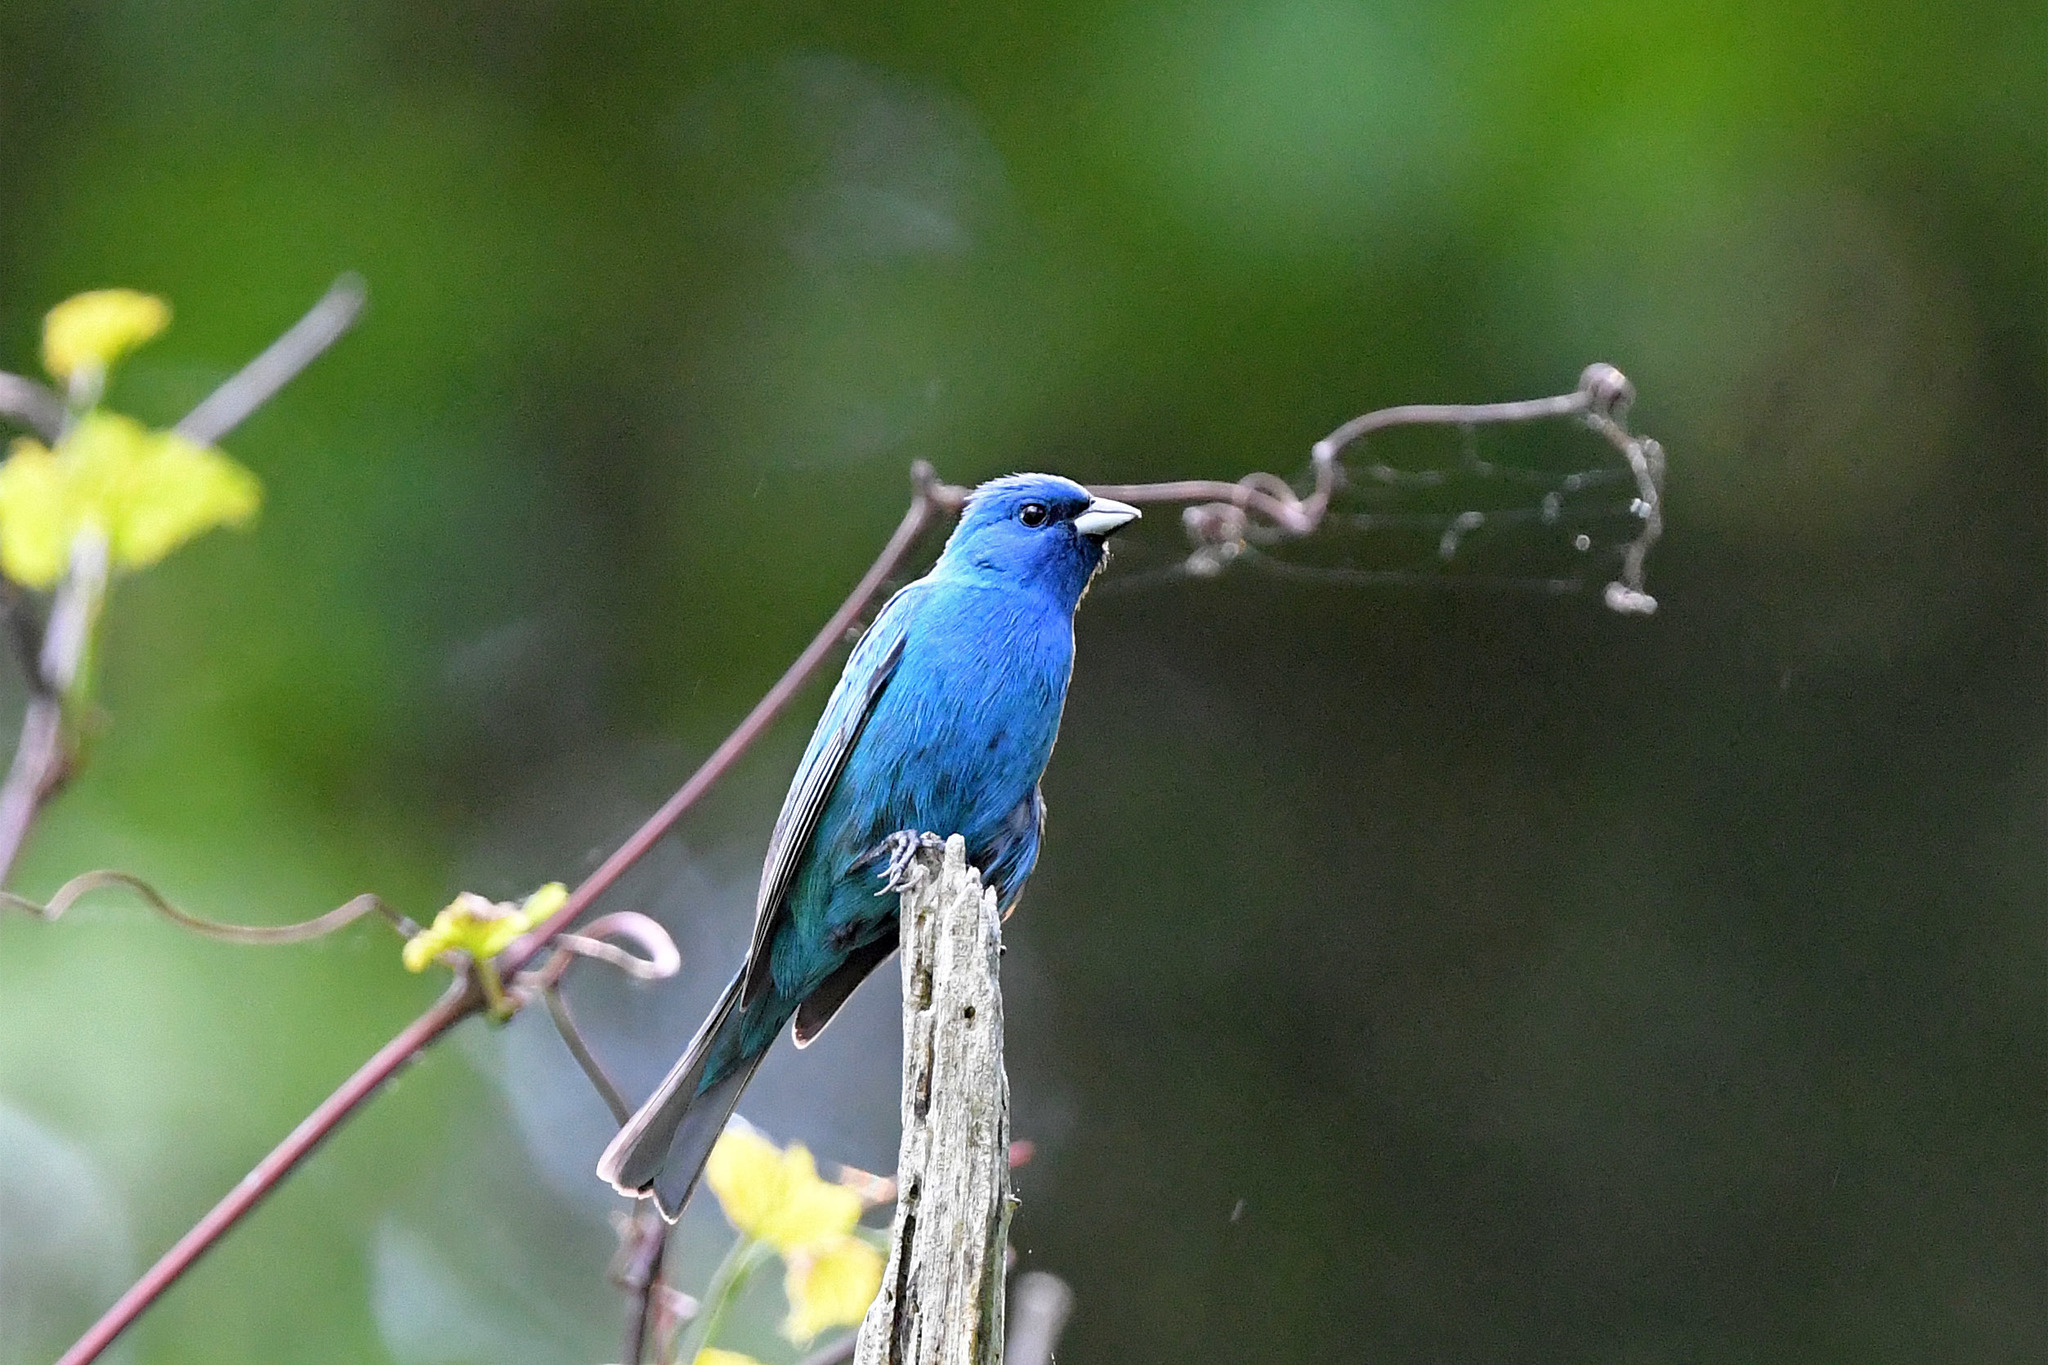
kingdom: Animalia
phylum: Chordata
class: Aves
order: Passeriformes
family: Cardinalidae
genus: Passerina
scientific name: Passerina cyanea
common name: Indigo bunting
